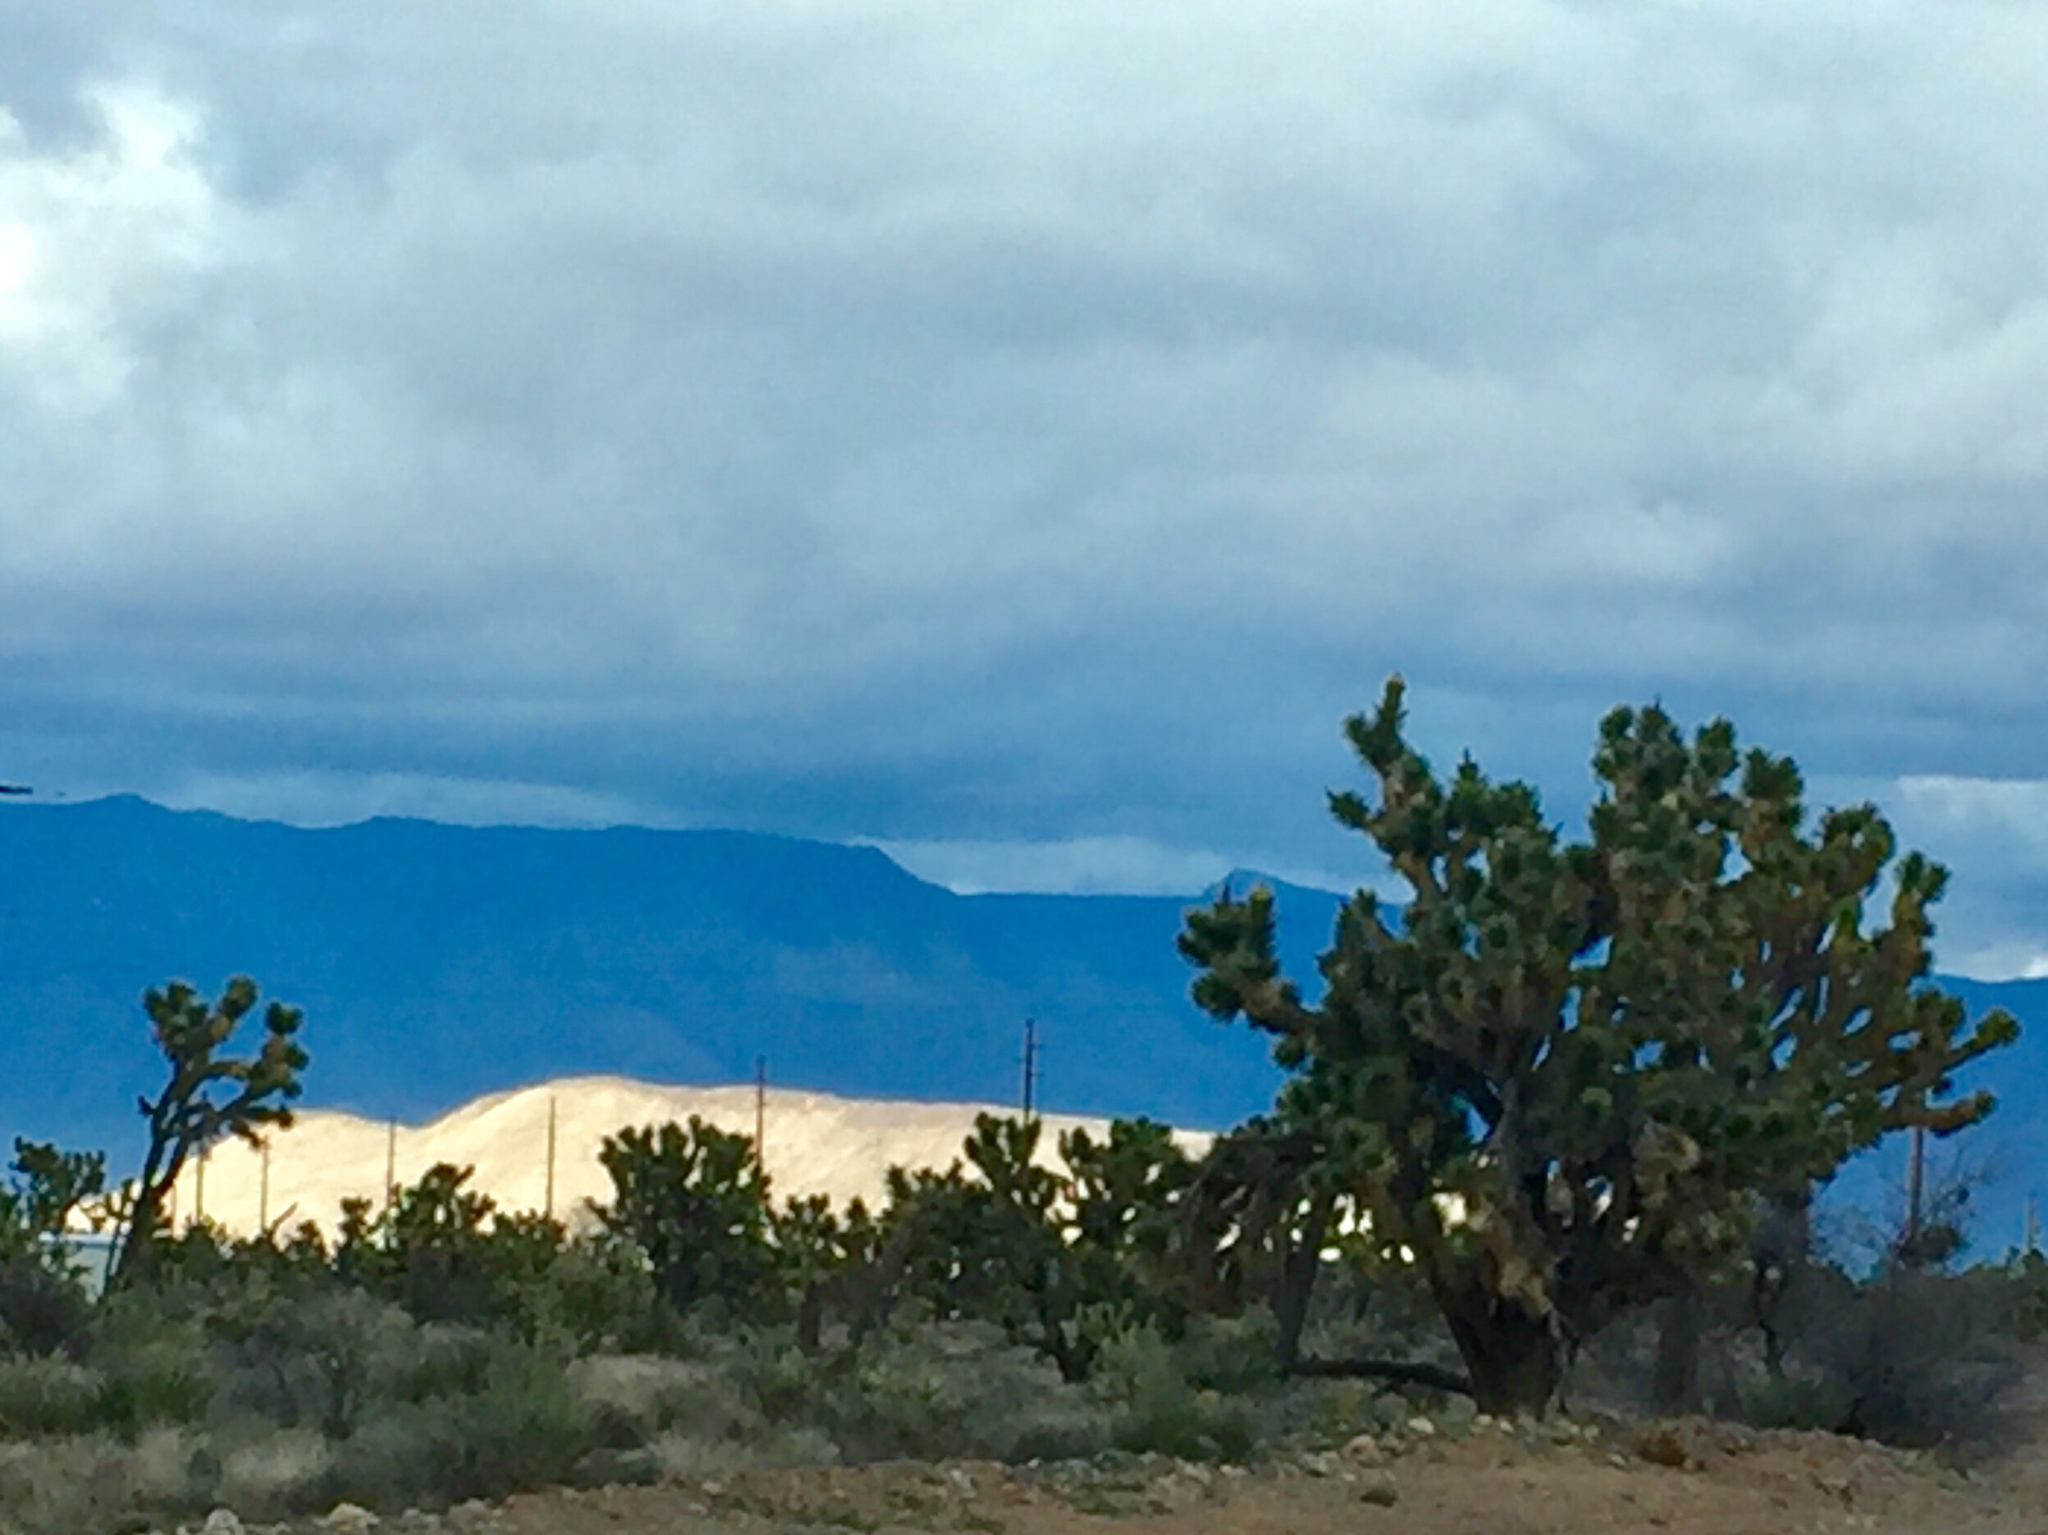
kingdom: Plantae
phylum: Tracheophyta
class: Liliopsida
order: Asparagales
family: Asparagaceae
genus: Yucca
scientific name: Yucca brevifolia
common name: Joshua tree
